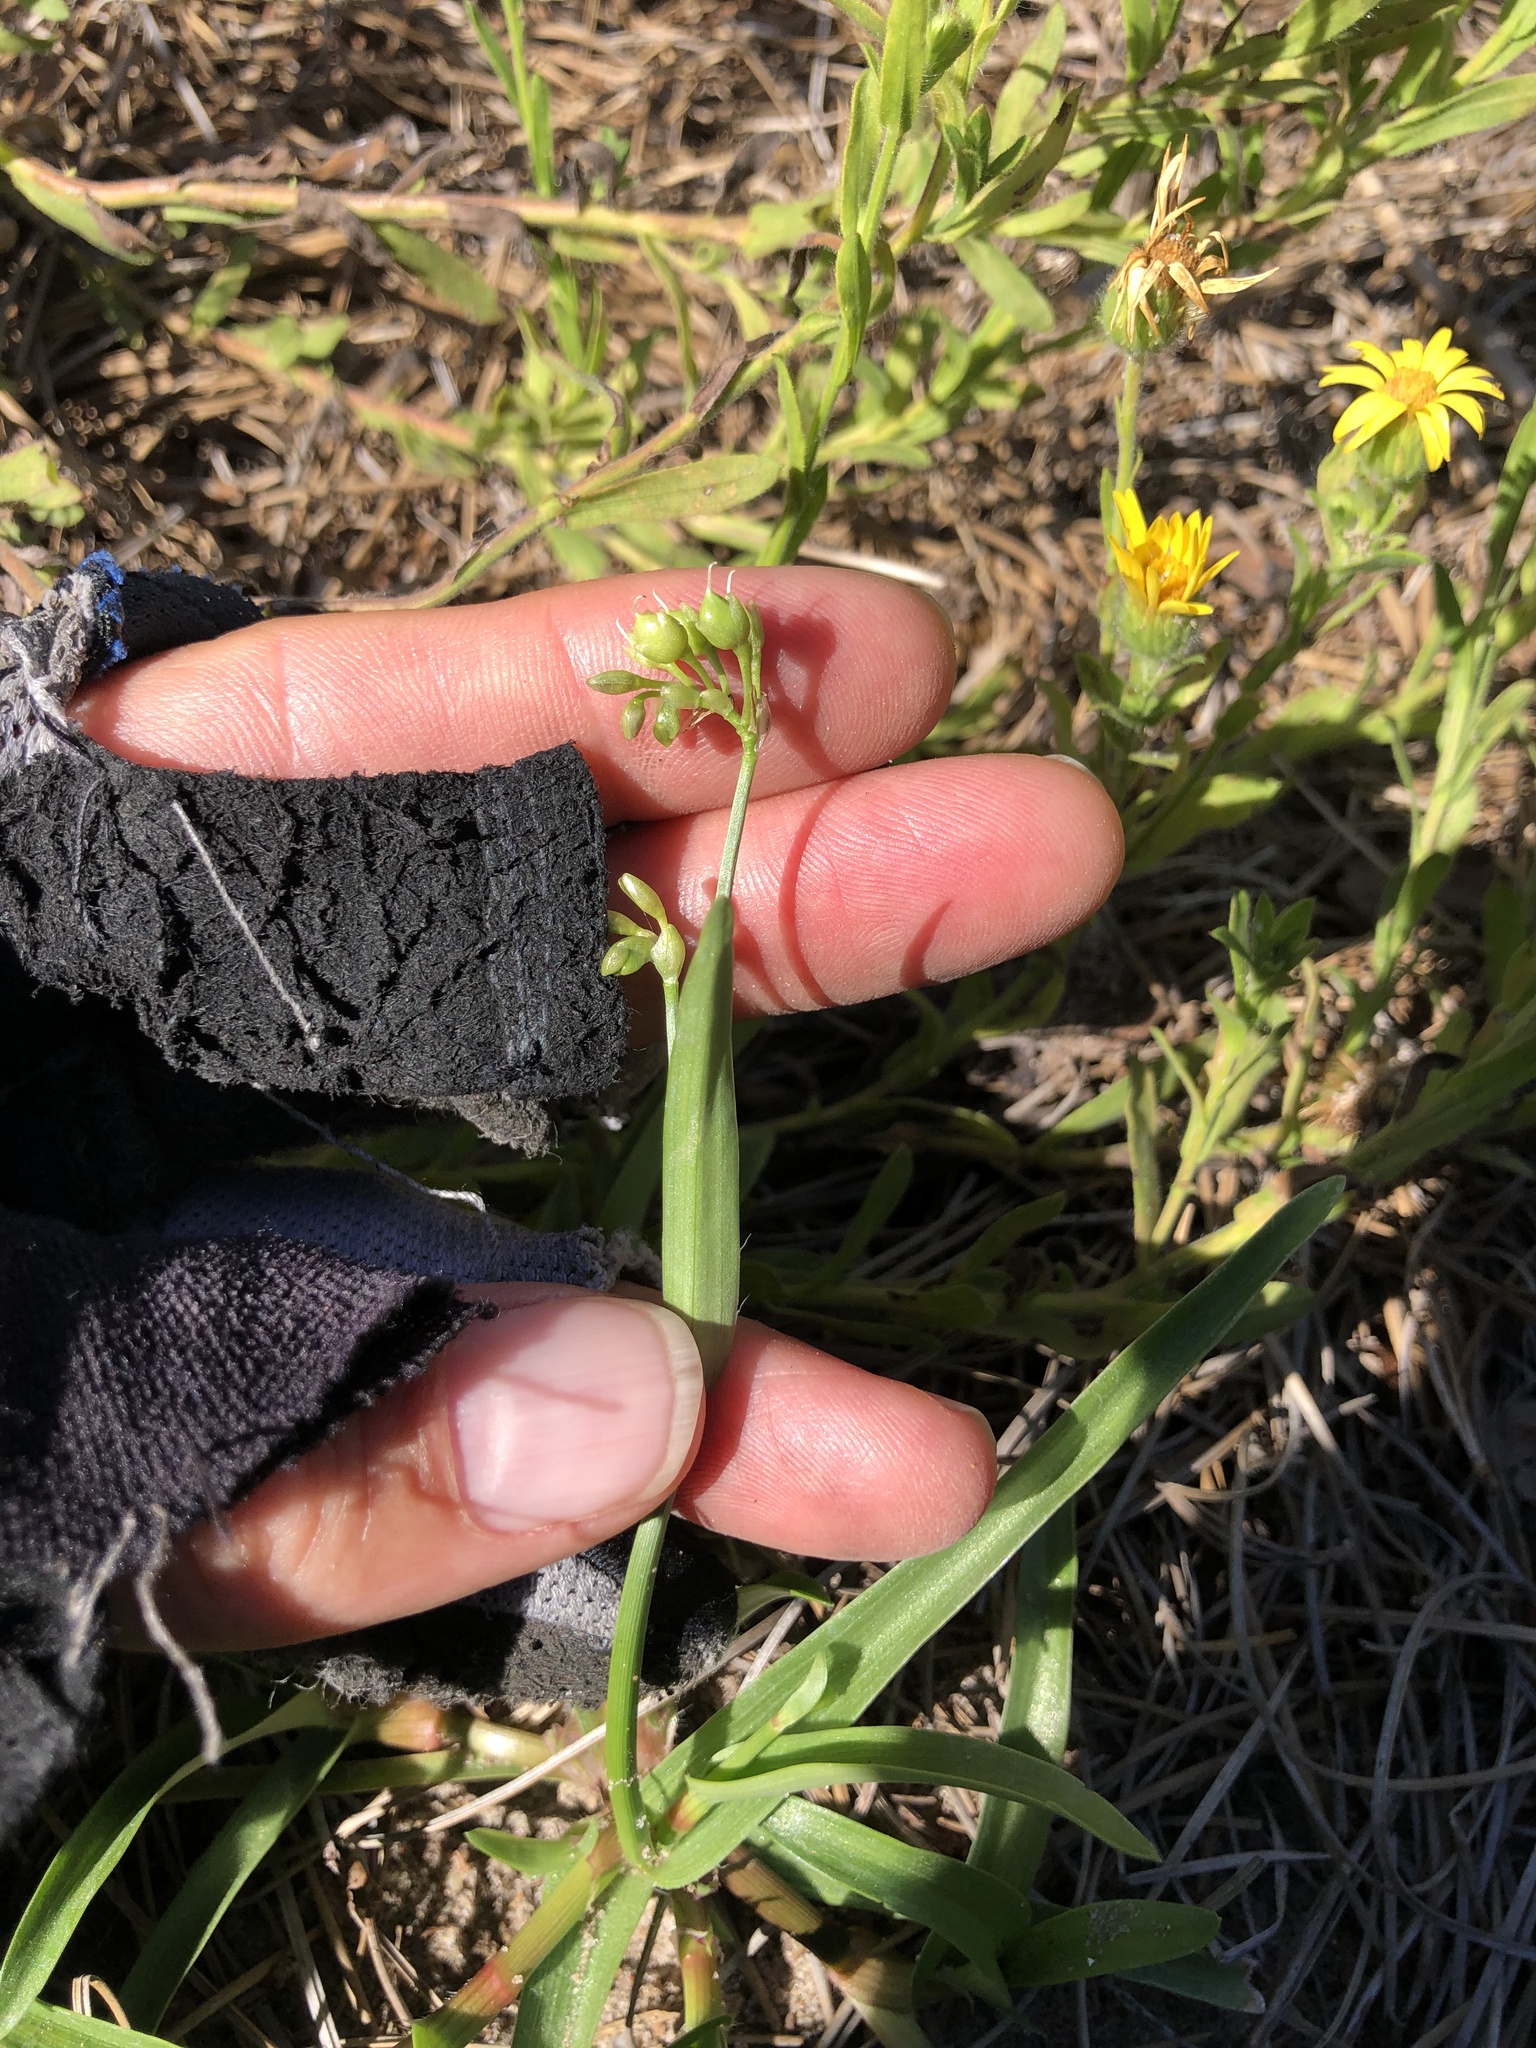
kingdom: Plantae
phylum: Tracheophyta
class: Liliopsida
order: Commelinales
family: Commelinaceae
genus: Murdannia
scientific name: Murdannia nudiflora
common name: Nakedstem dewflower
